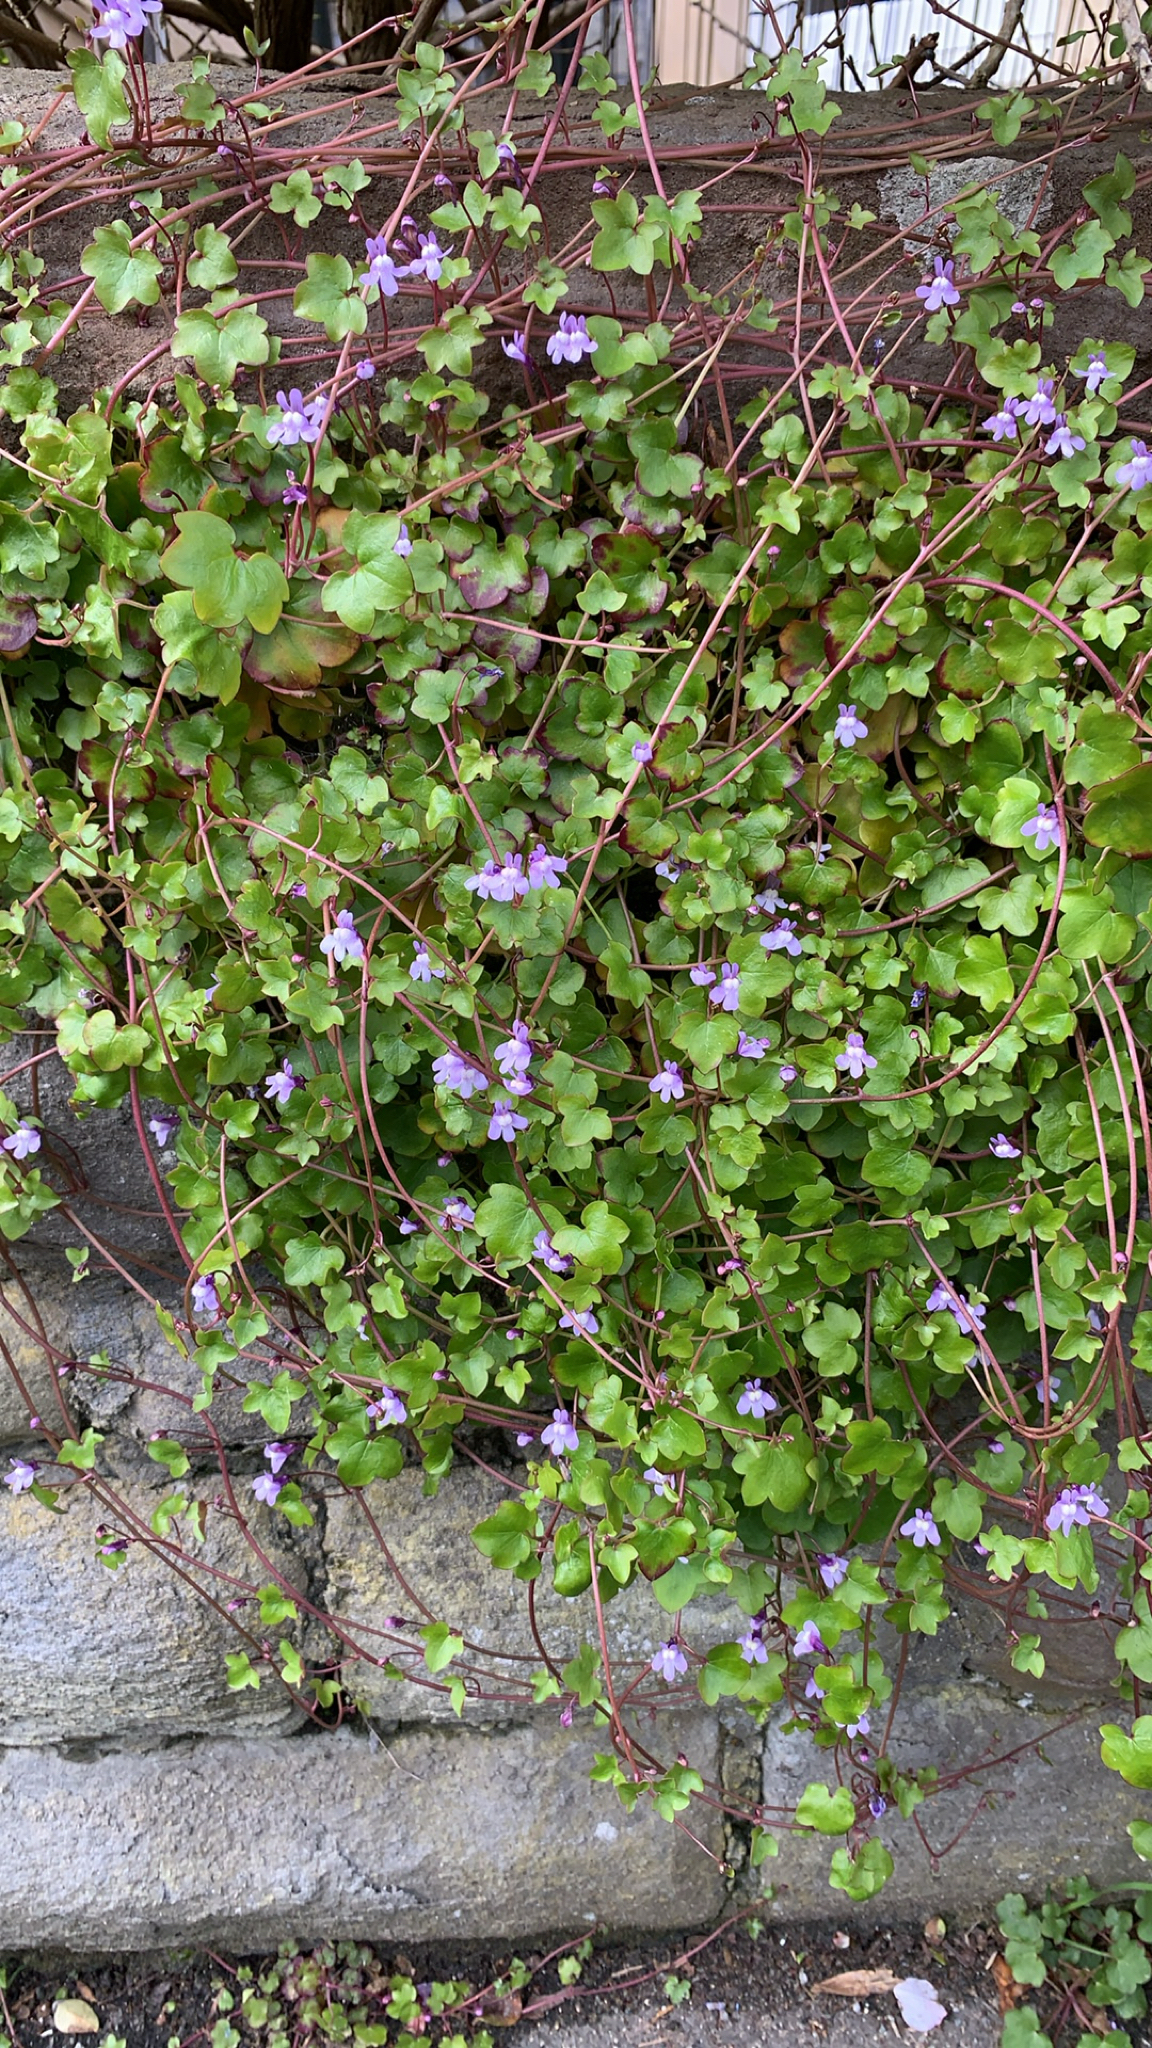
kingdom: Plantae
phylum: Tracheophyta
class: Magnoliopsida
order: Lamiales
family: Plantaginaceae
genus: Cymbalaria
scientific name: Cymbalaria muralis
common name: Ivy-leaved toadflax
